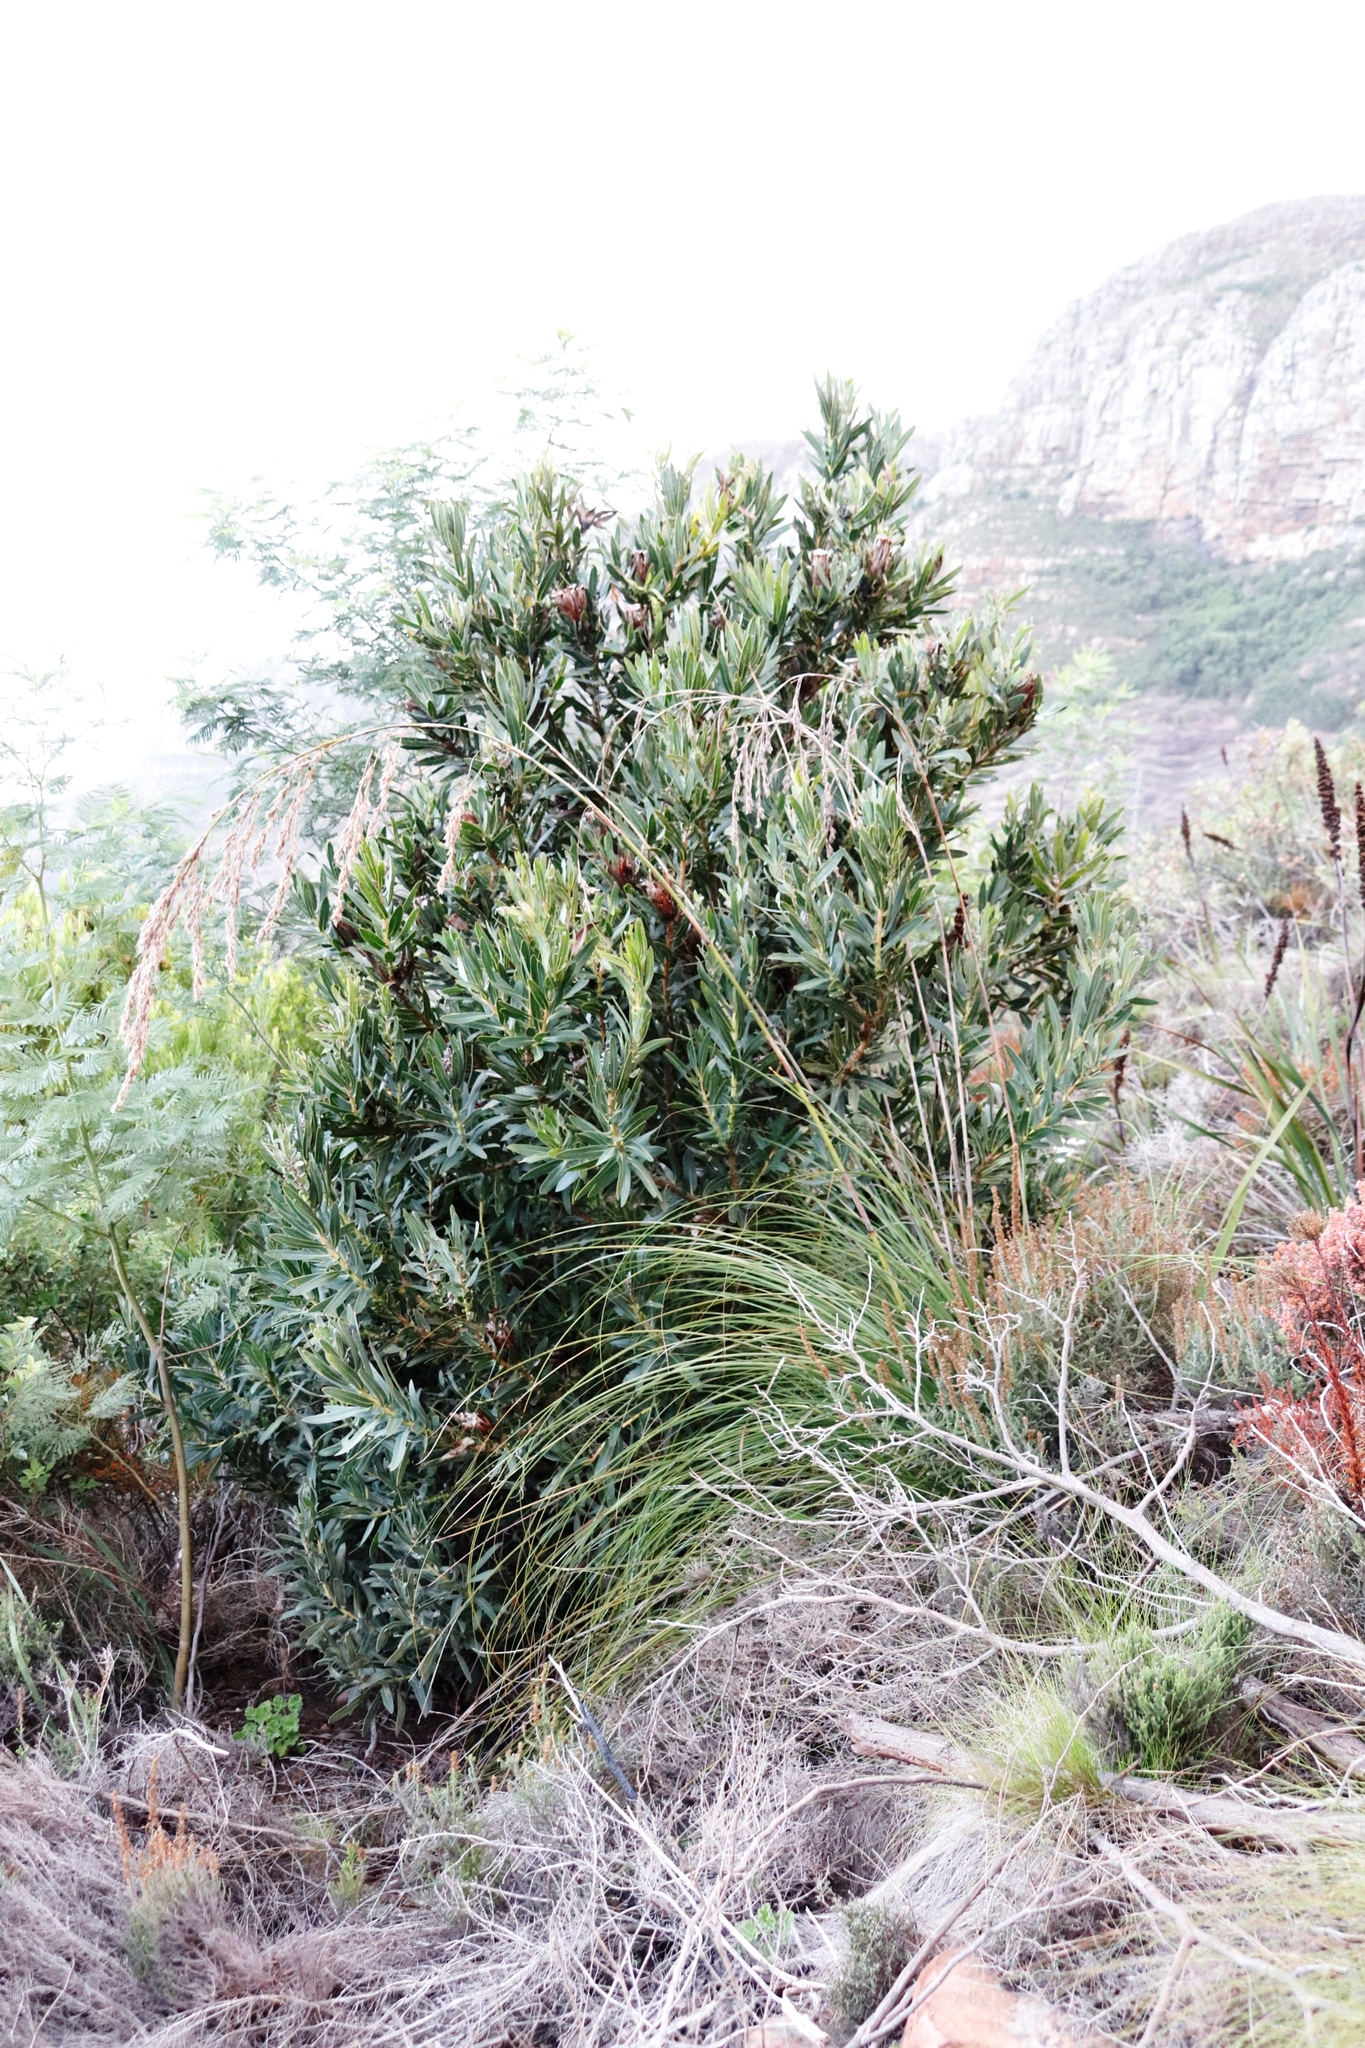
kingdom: Plantae
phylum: Tracheophyta
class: Magnoliopsida
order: Proteales
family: Proteaceae
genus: Protea
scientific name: Protea lepidocarpodendron
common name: Black-bearded protea
